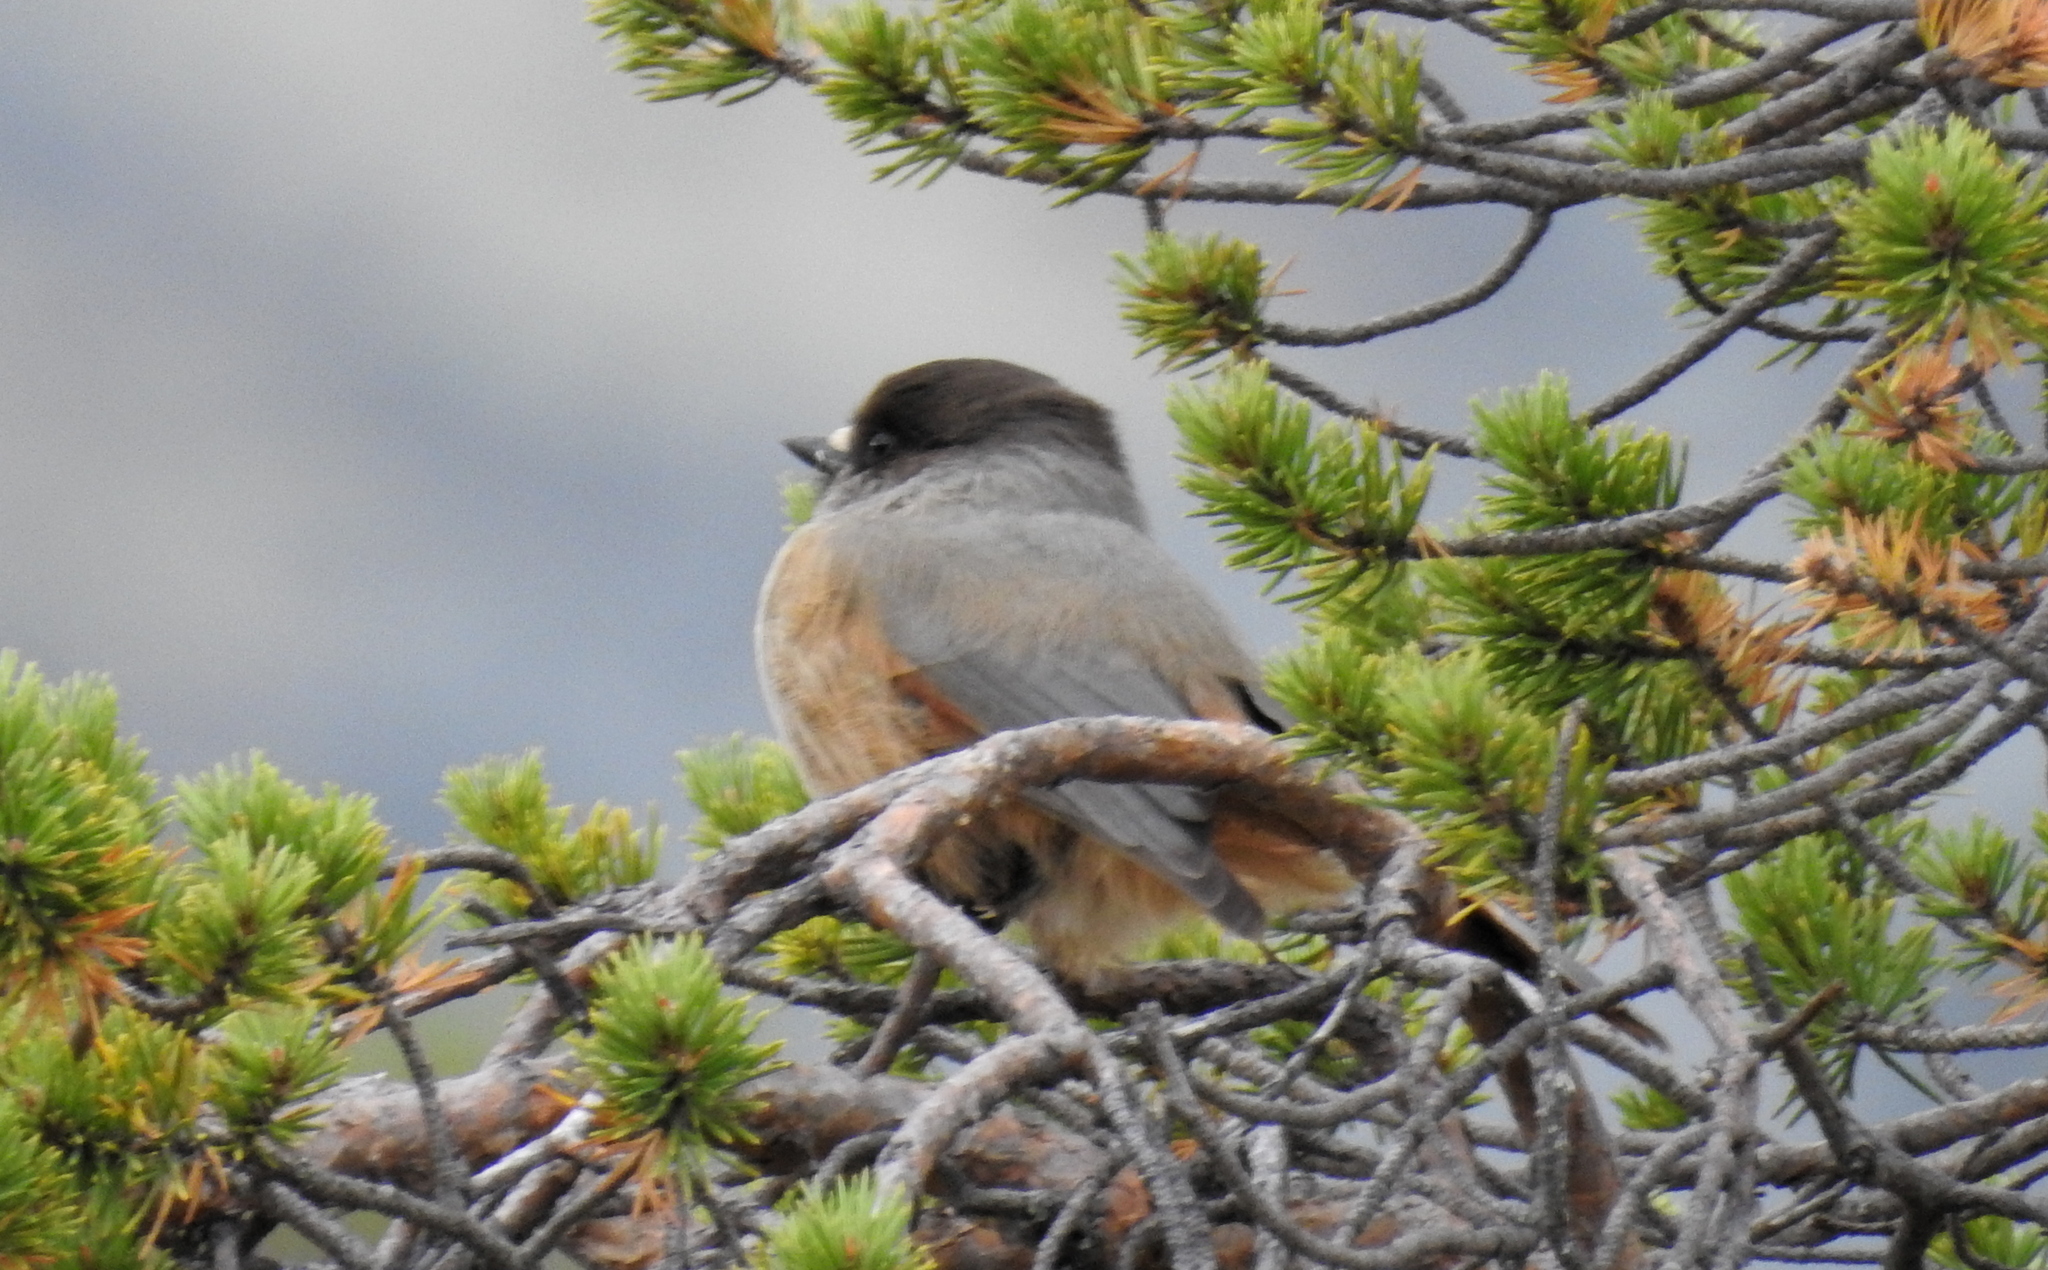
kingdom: Animalia
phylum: Chordata
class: Aves
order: Passeriformes
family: Corvidae
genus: Perisoreus
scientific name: Perisoreus infaustus
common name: Siberian jay
